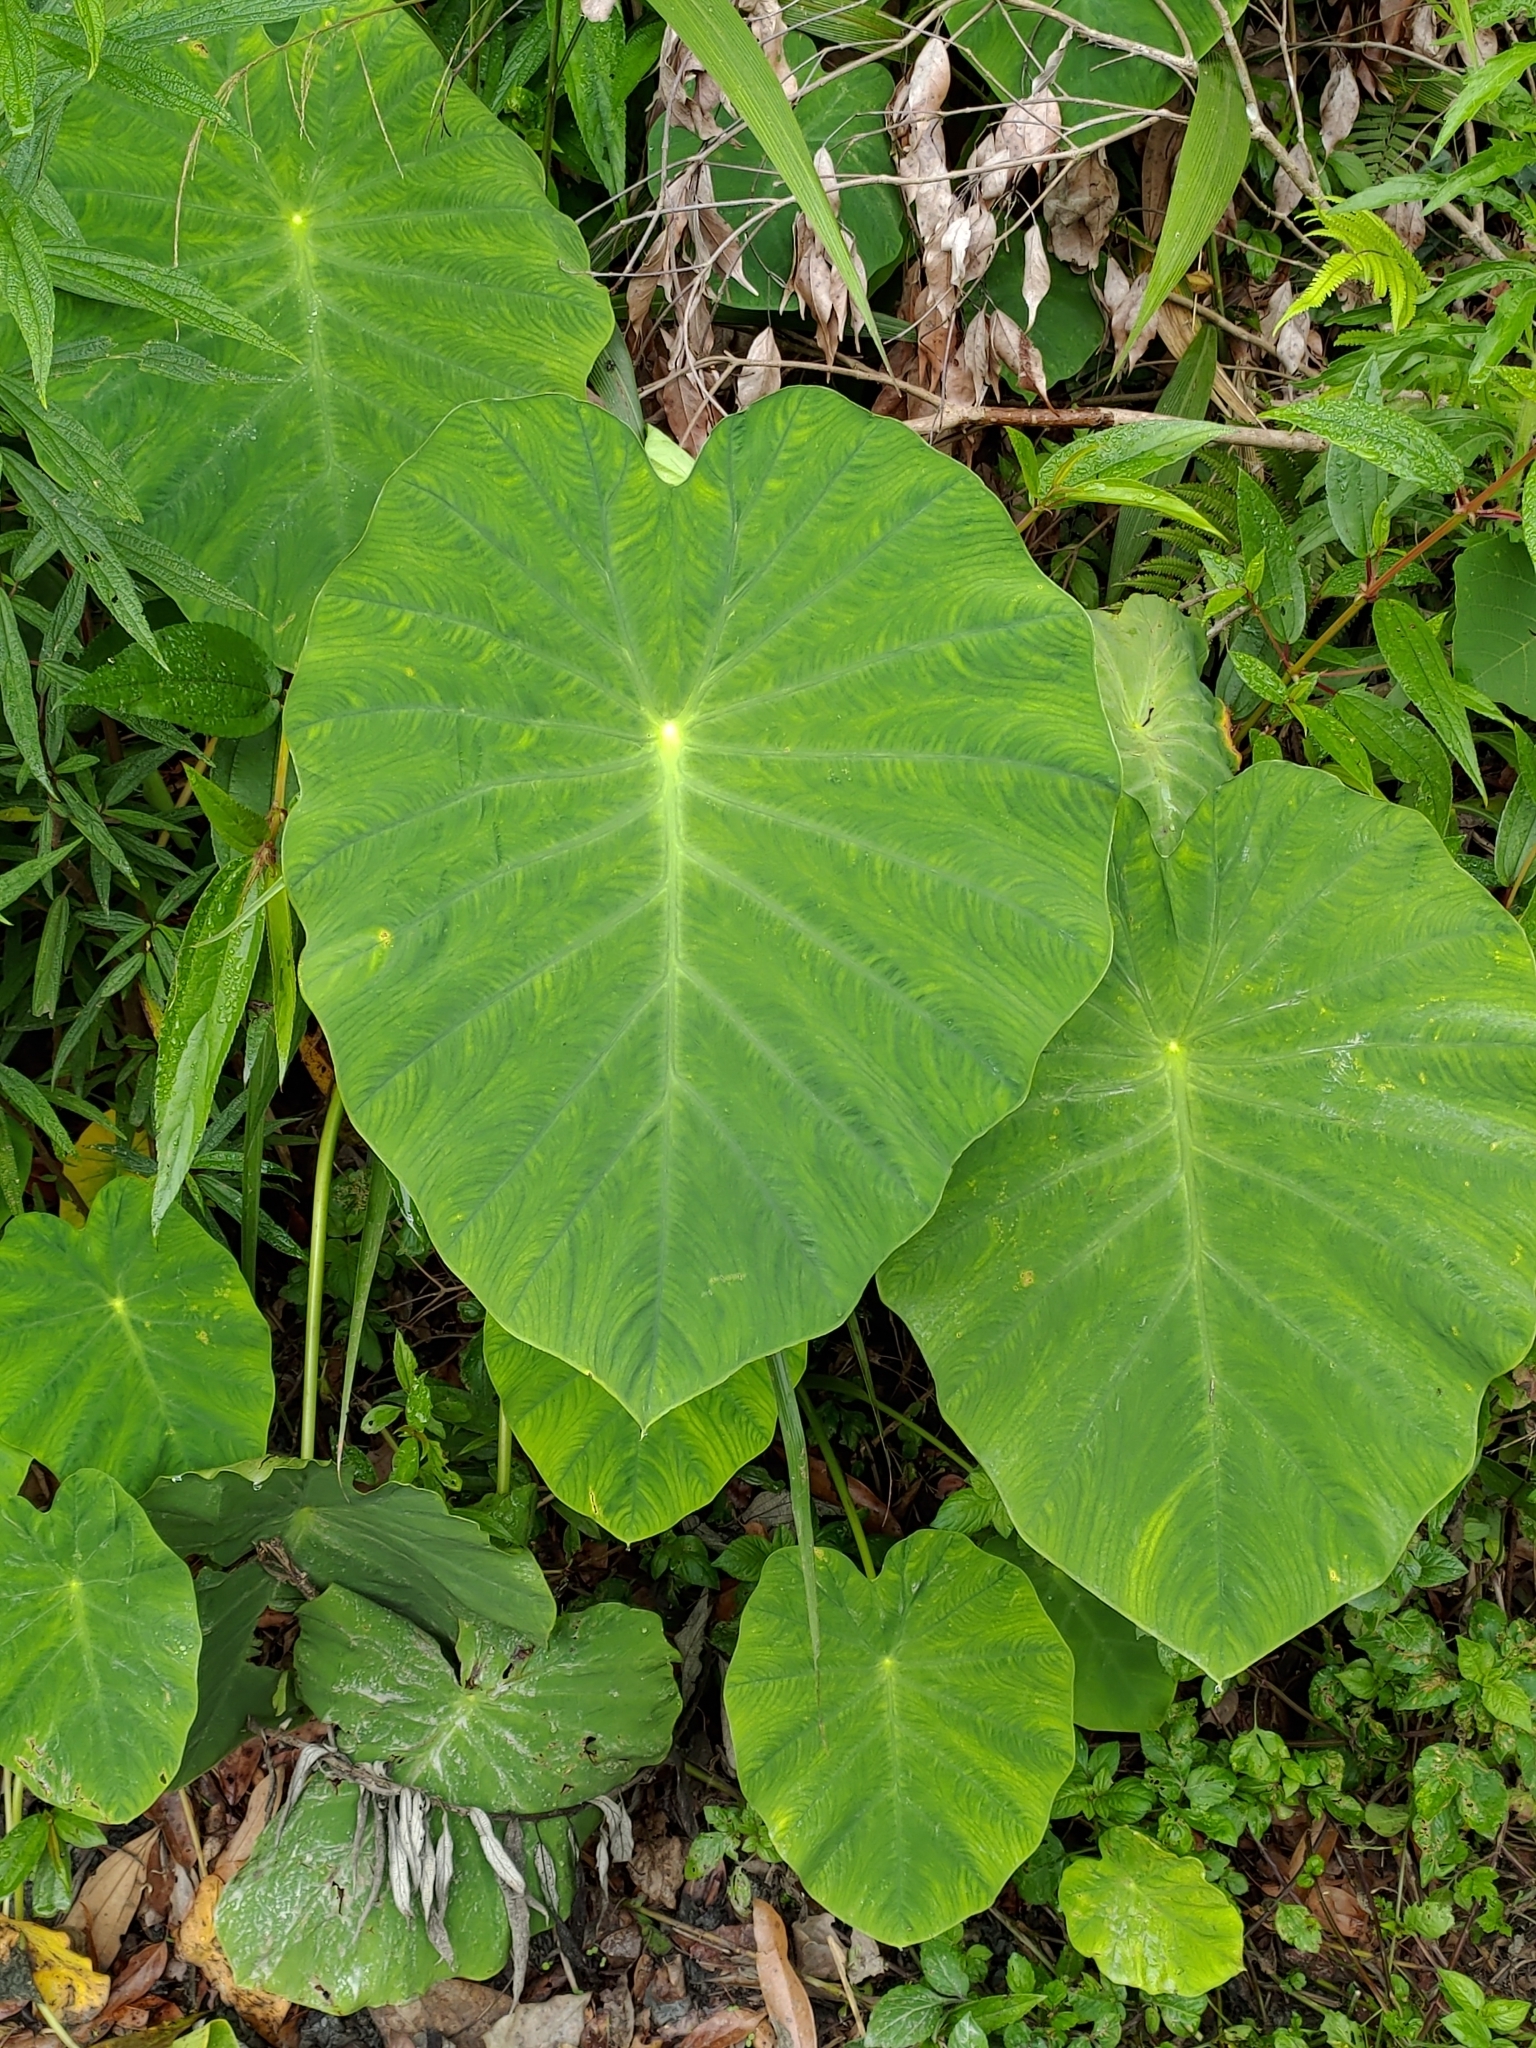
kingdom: Plantae
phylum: Tracheophyta
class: Liliopsida
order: Alismatales
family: Araceae
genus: Colocasia
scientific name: Colocasia esculenta
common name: Taro
